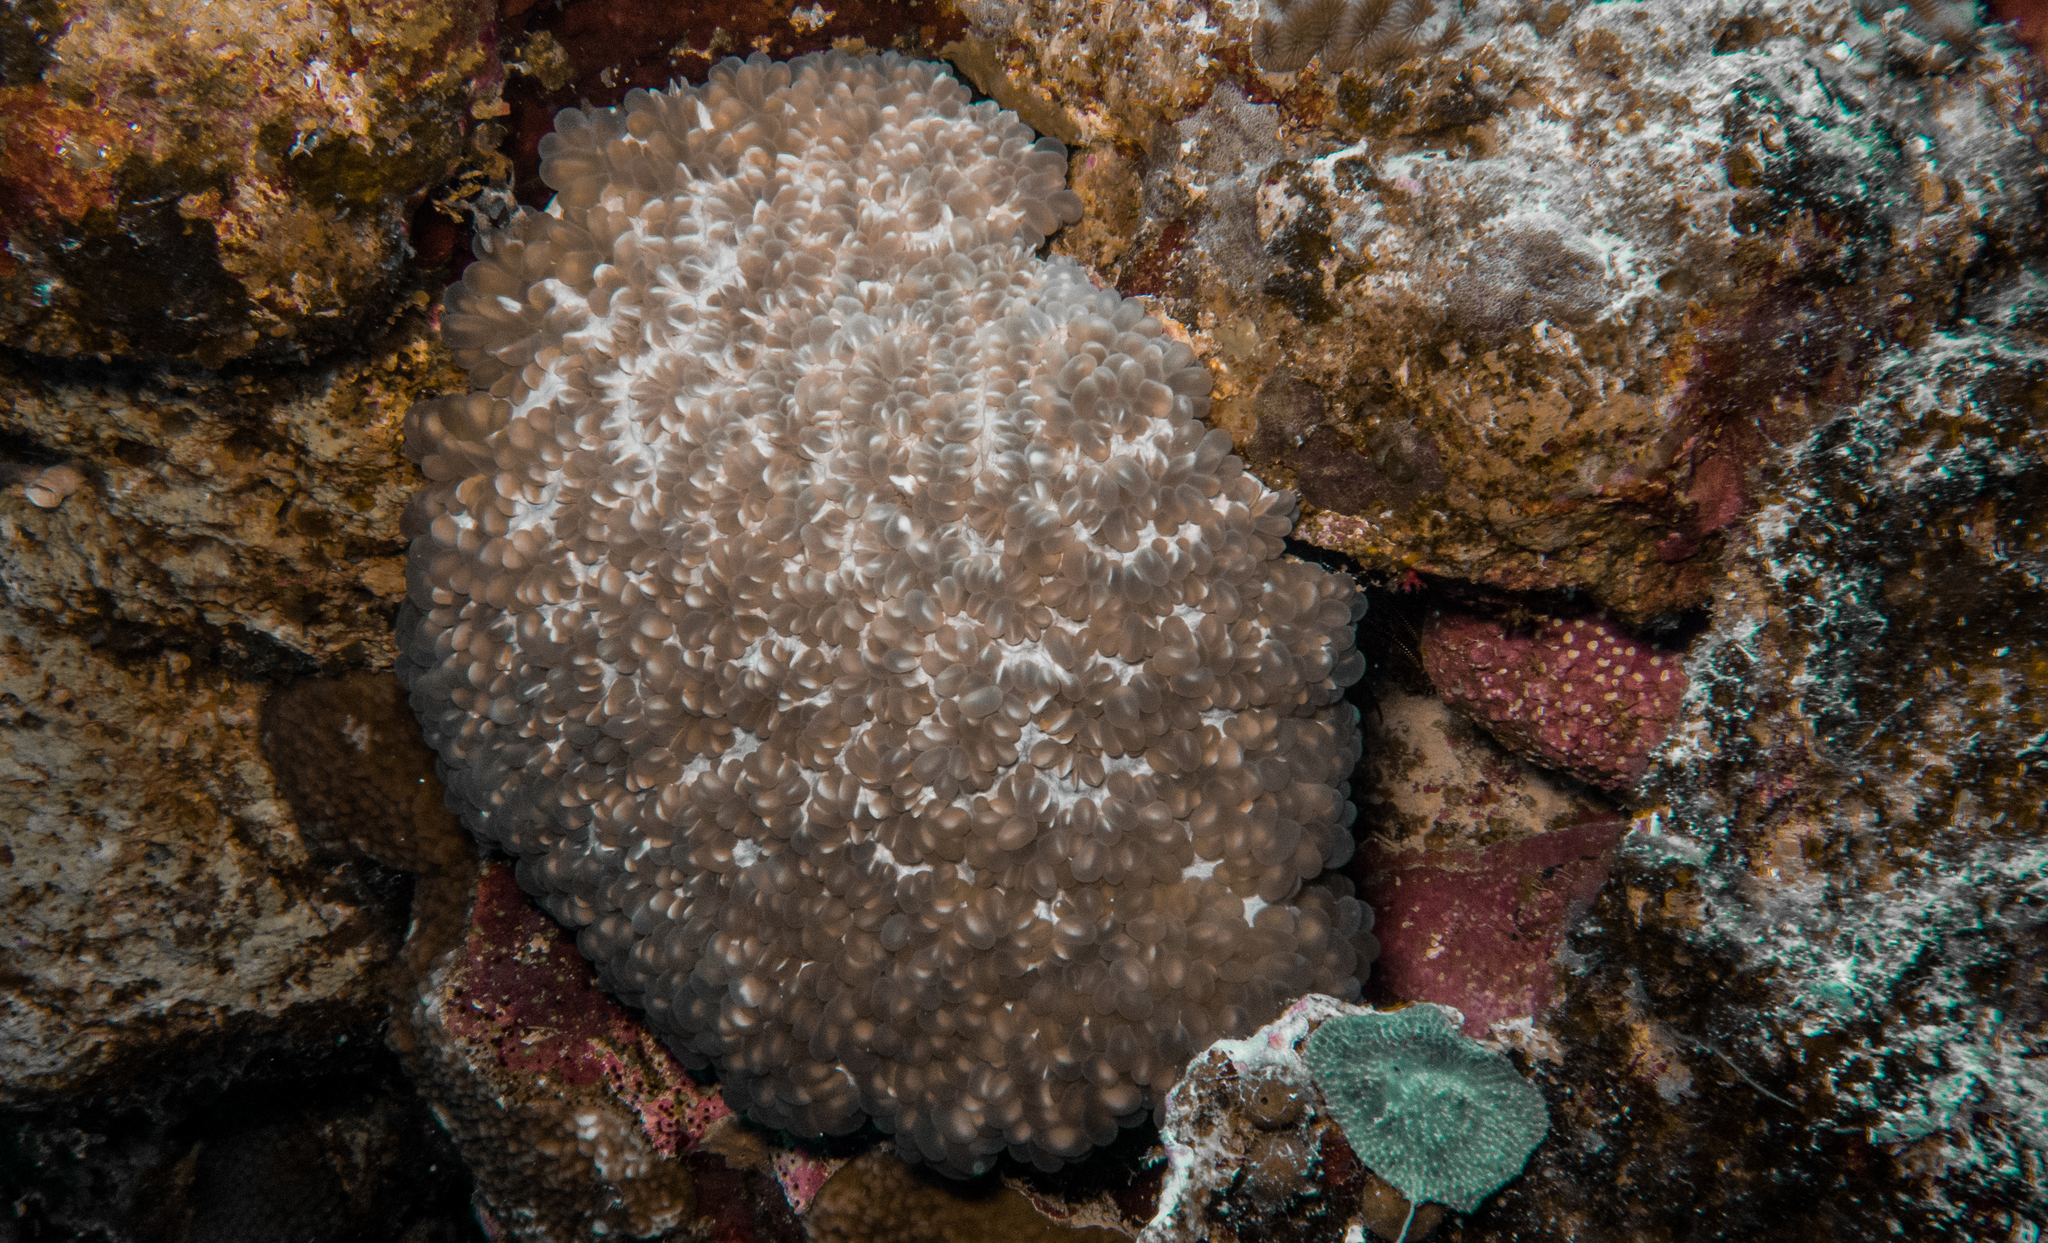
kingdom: Animalia
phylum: Cnidaria
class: Anthozoa
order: Scleractinia
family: Plerogyridae
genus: Plerogyra
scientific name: Plerogyra sinuosa
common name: Bubble coral
